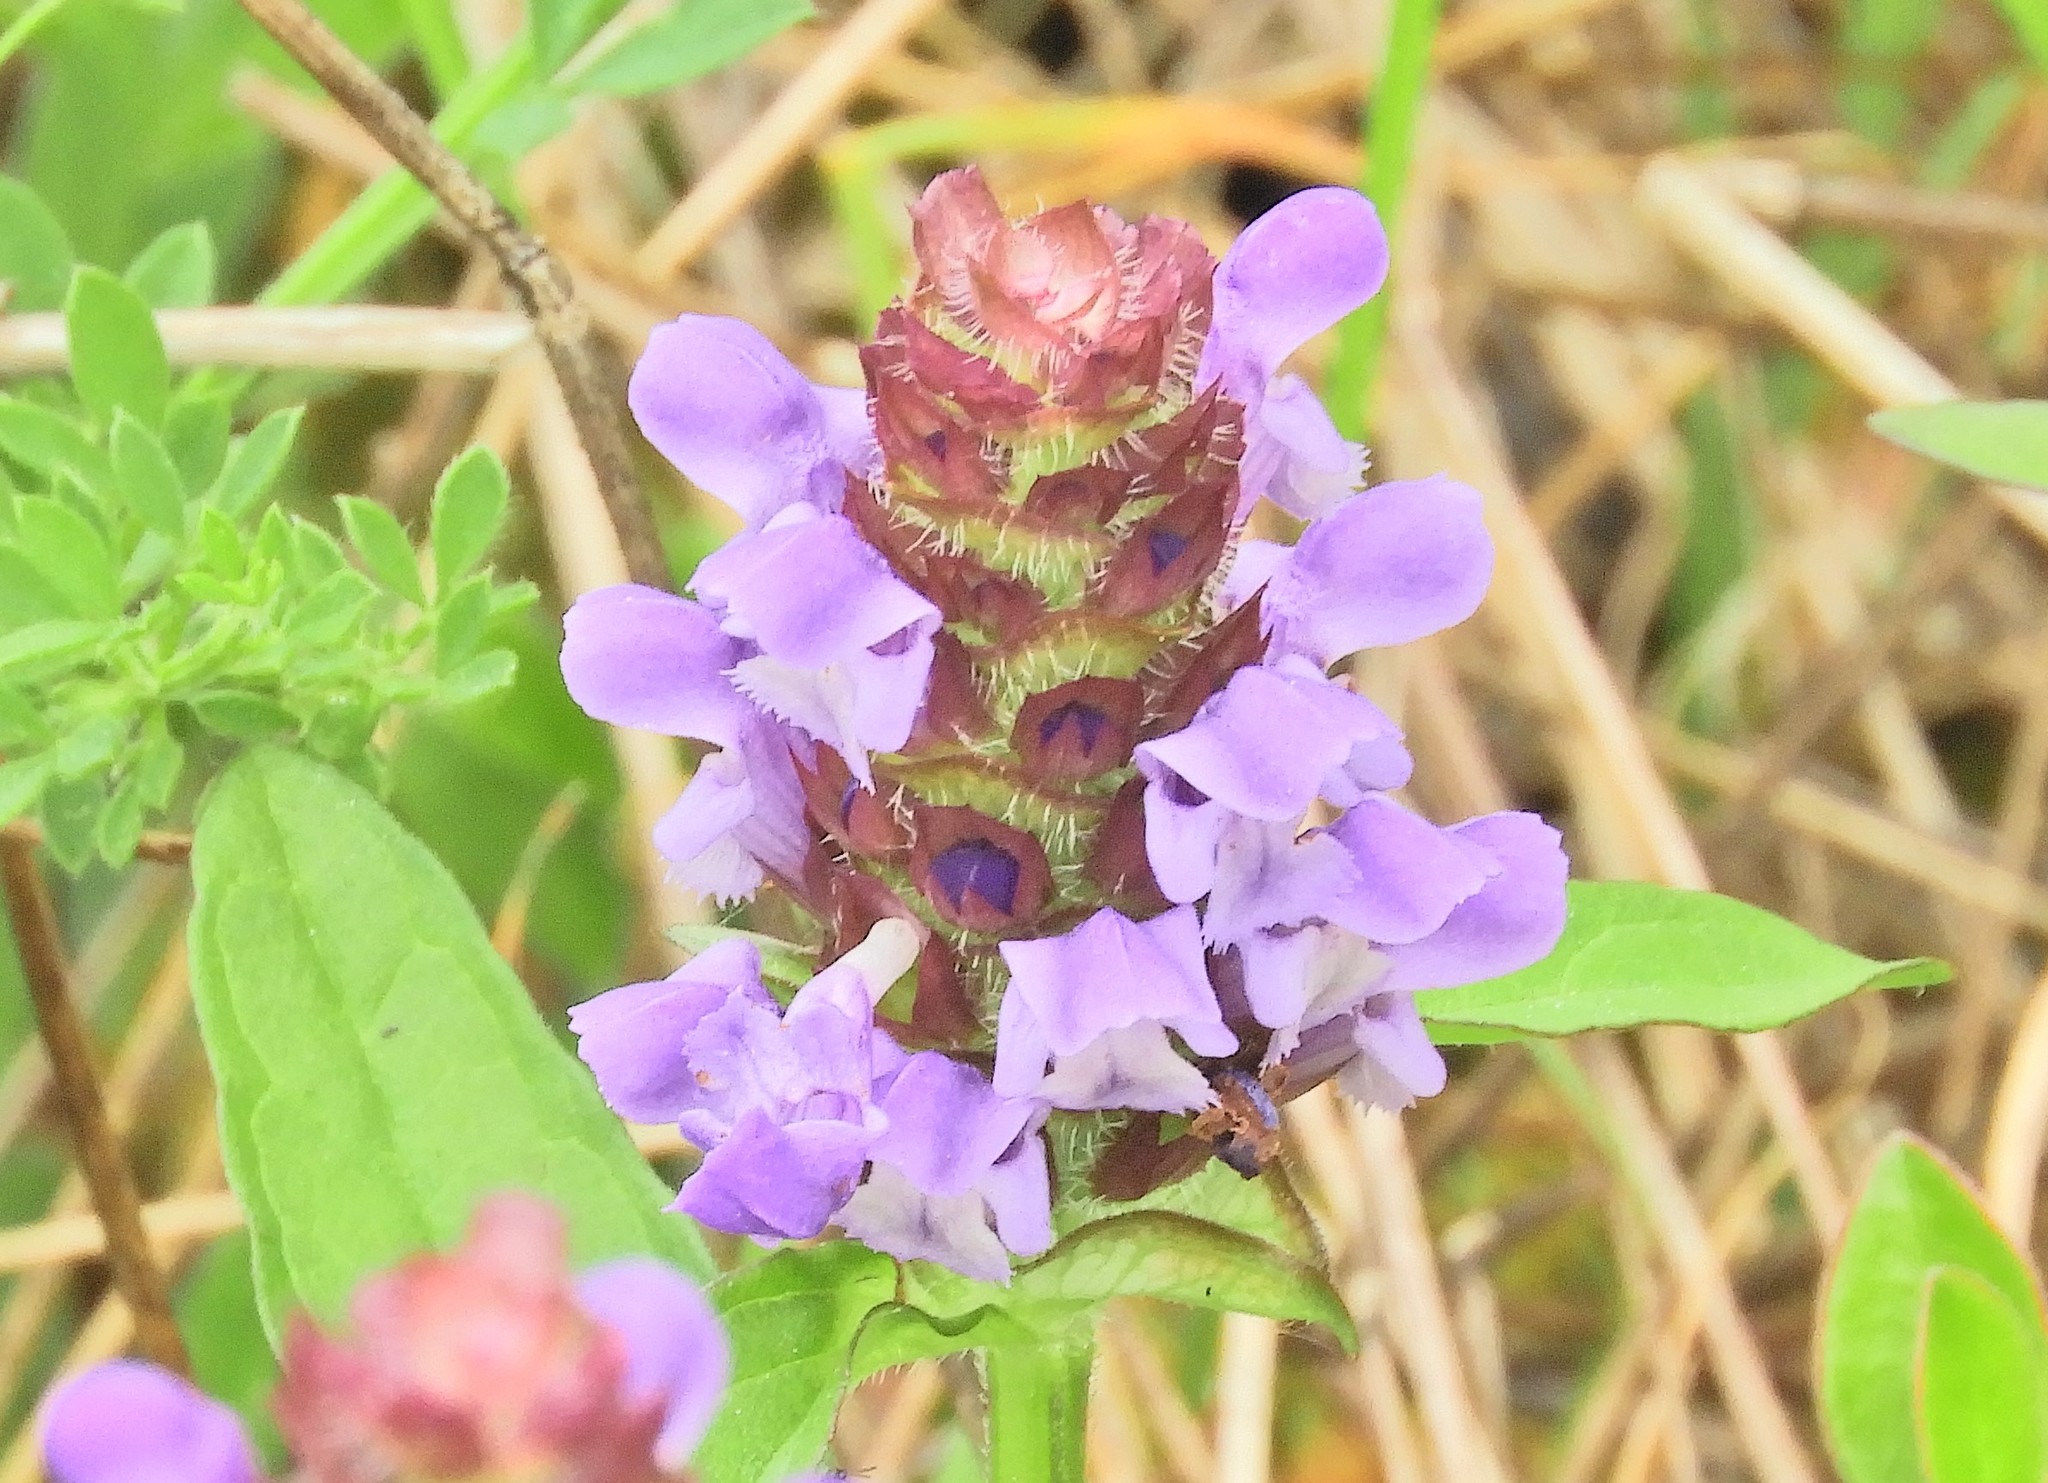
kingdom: Plantae
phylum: Tracheophyta
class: Magnoliopsida
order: Lamiales
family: Lamiaceae
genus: Prunella
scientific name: Prunella vulgaris
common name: Heal-all
